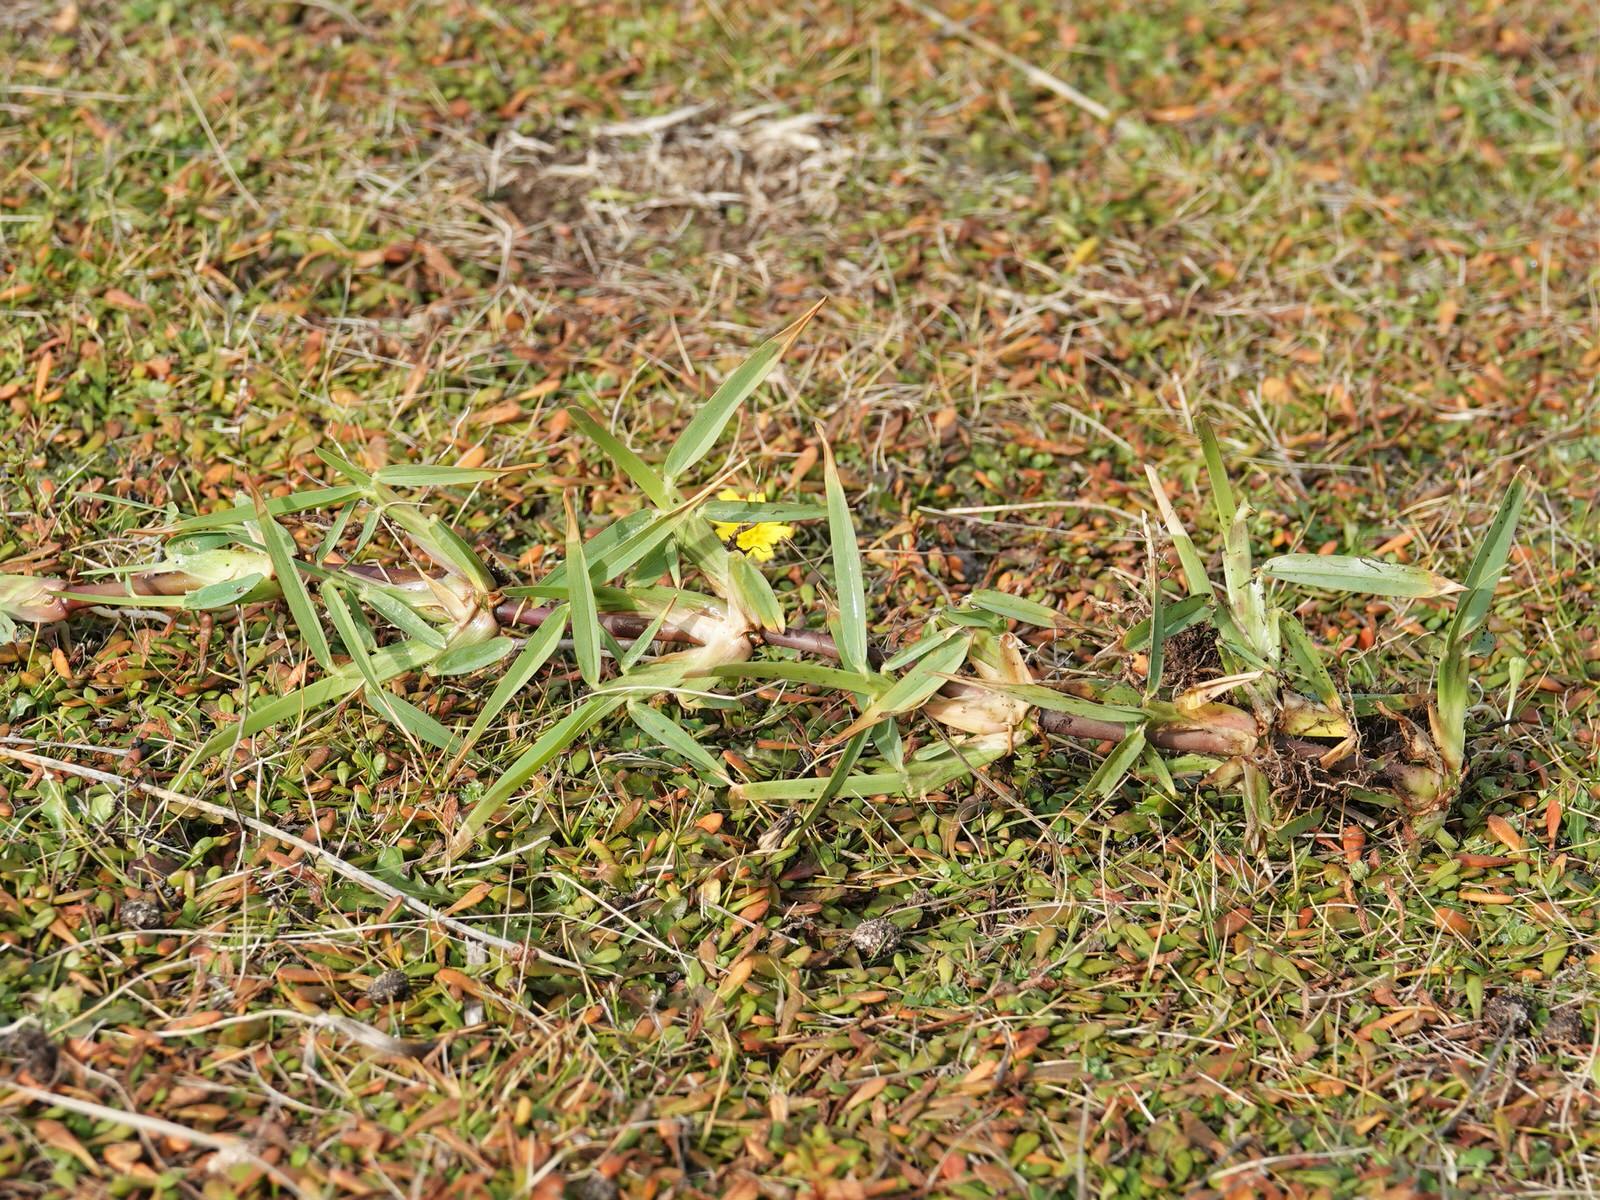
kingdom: Plantae
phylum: Tracheophyta
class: Liliopsida
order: Poales
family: Poaceae
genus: Stenotaphrum
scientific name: Stenotaphrum secundatum
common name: St. augustine grass
